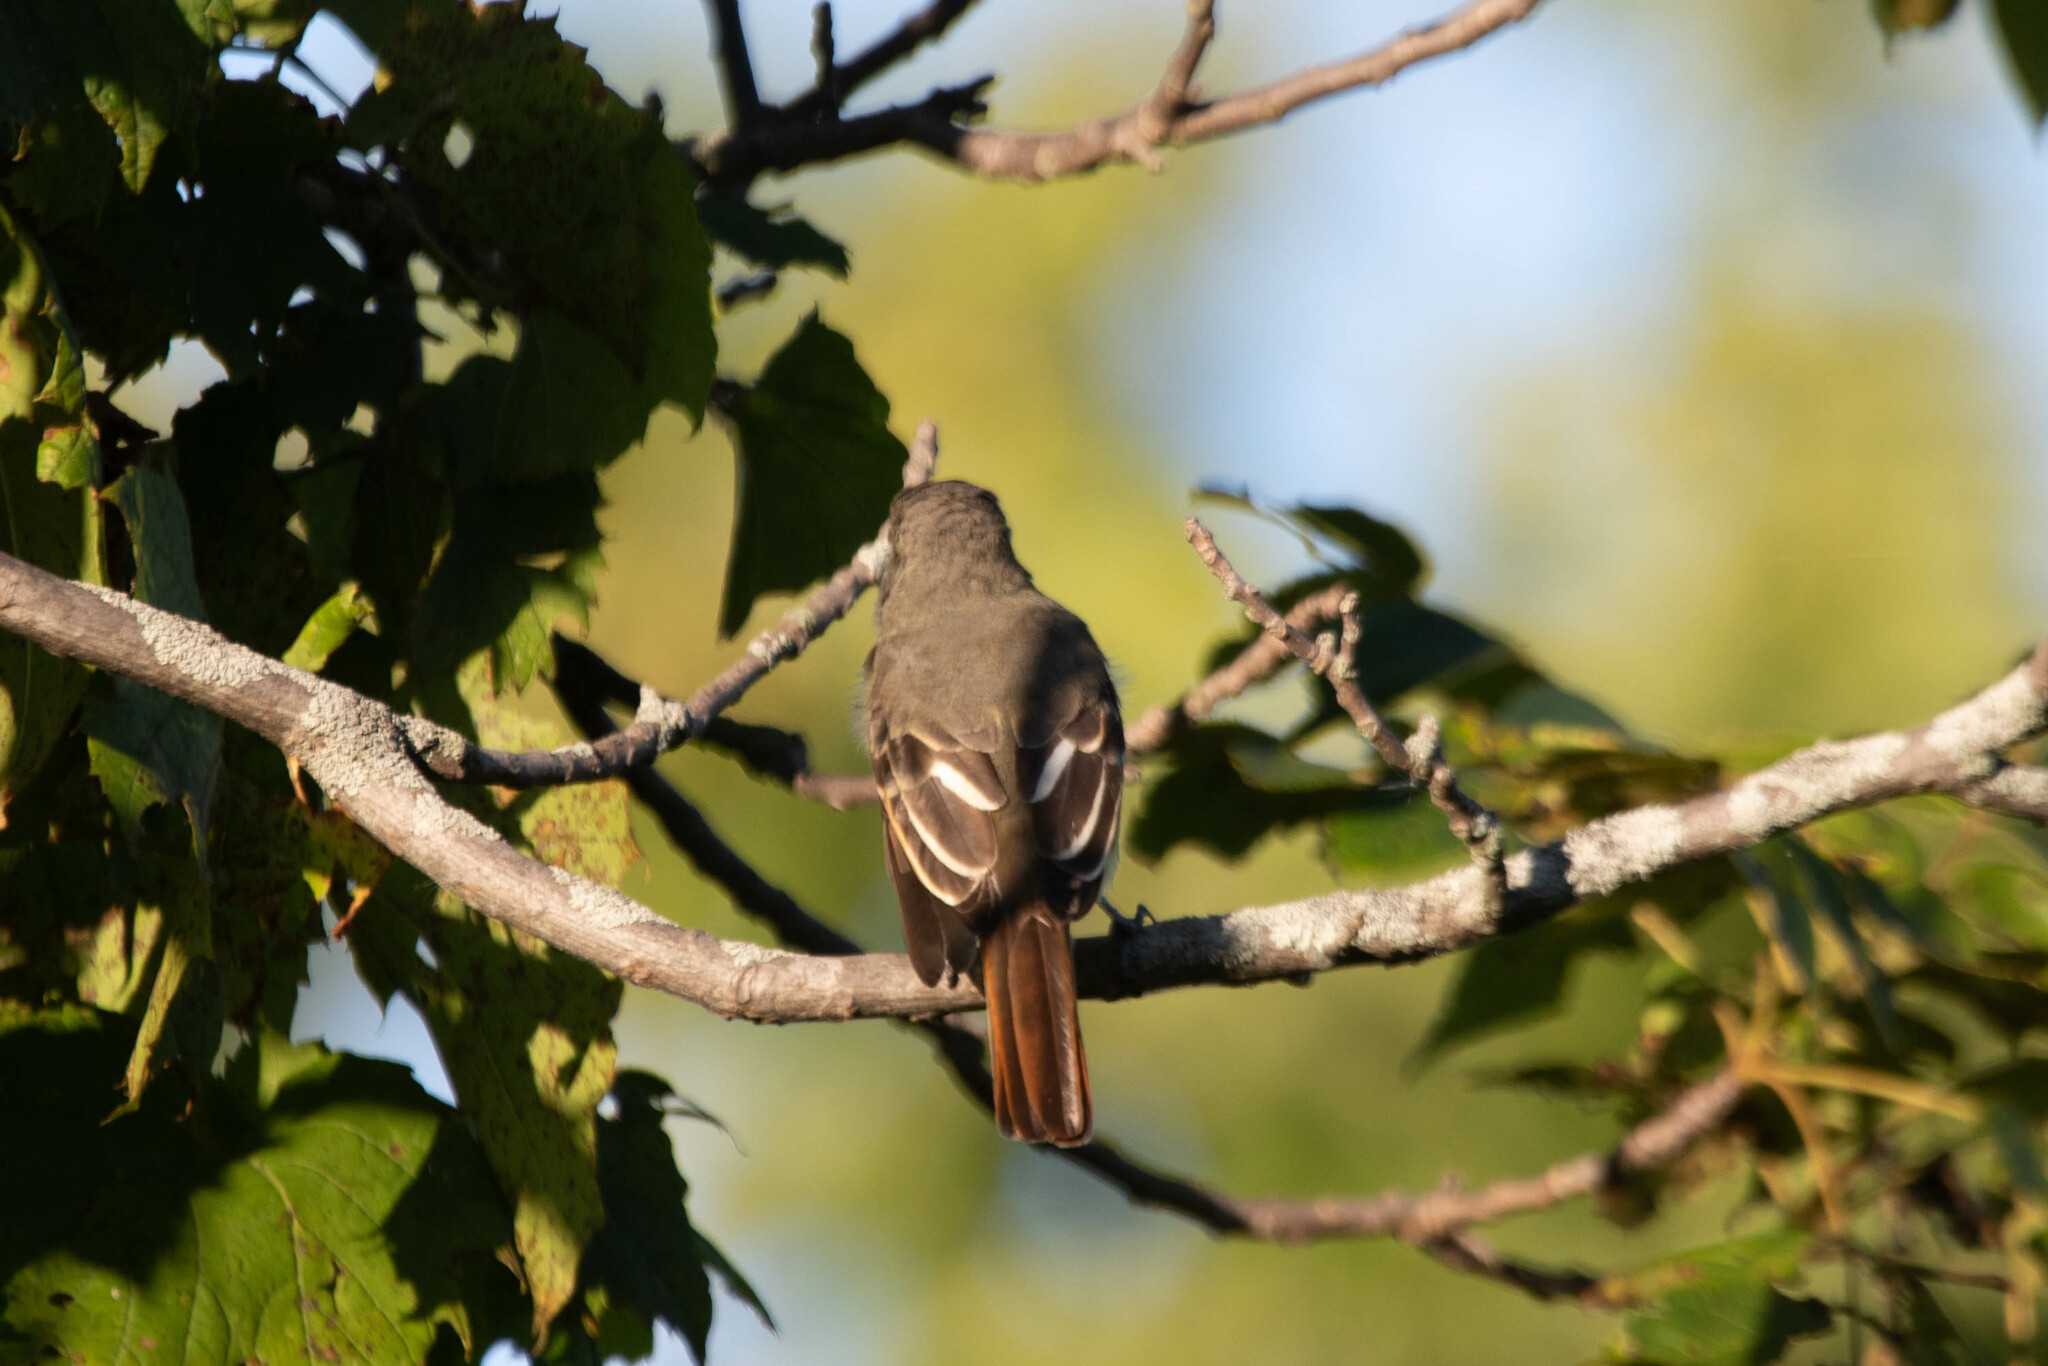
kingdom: Animalia
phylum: Chordata
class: Aves
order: Passeriformes
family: Tyrannidae
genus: Myiarchus
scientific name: Myiarchus crinitus
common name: Great crested flycatcher
